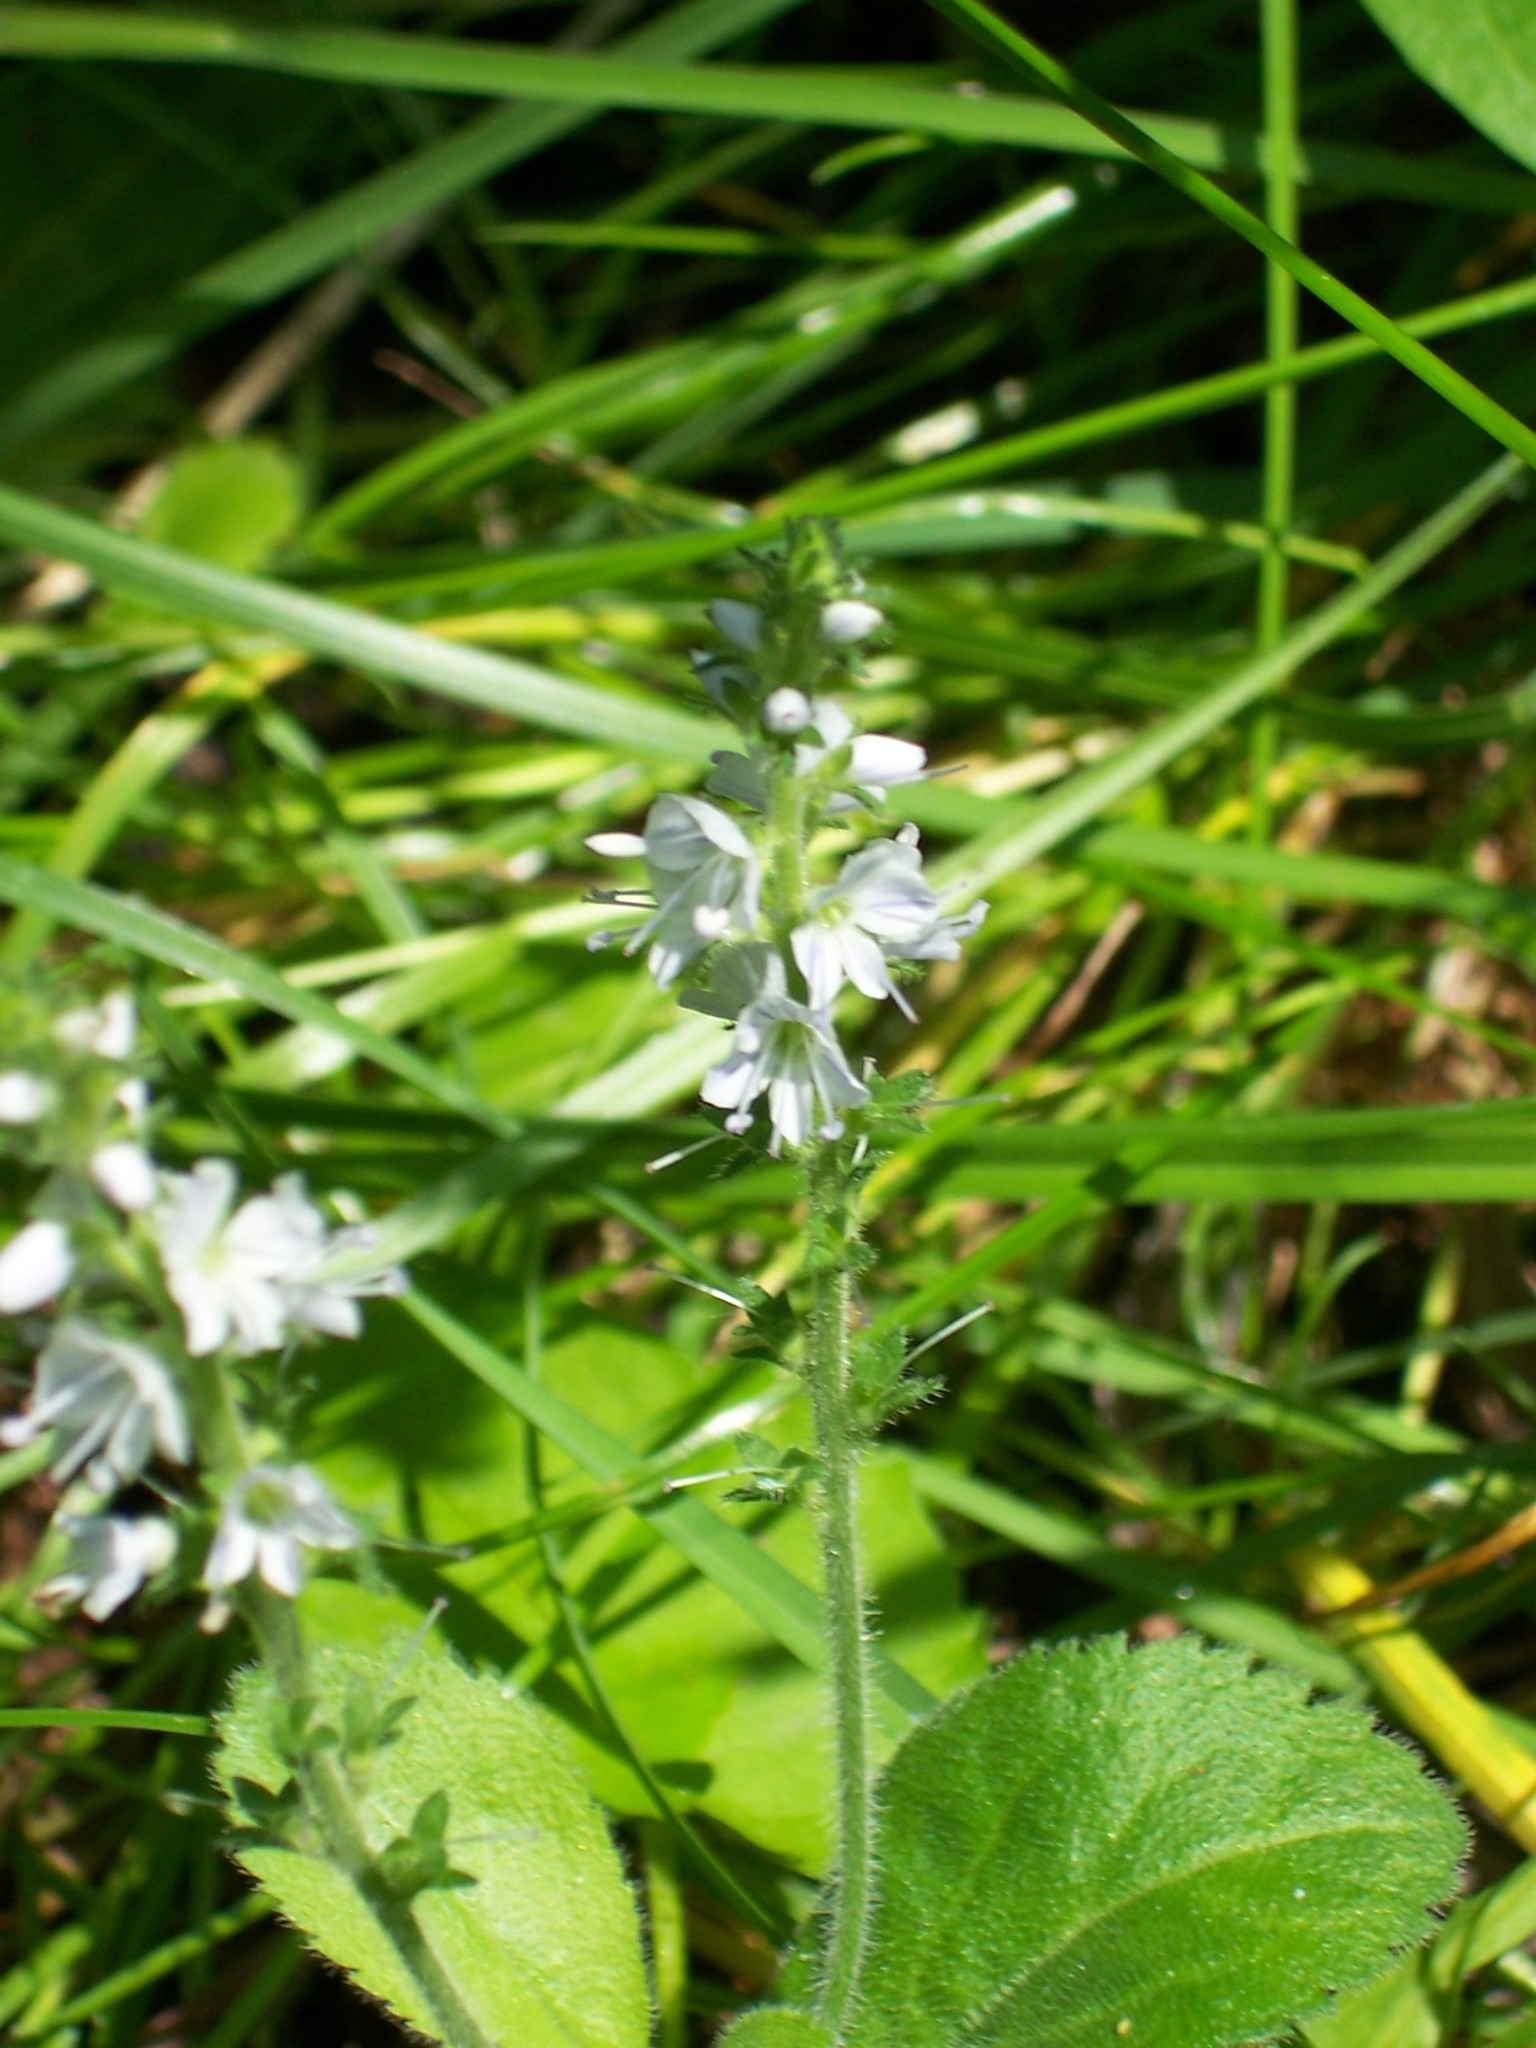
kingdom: Plantae
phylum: Tracheophyta
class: Magnoliopsida
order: Lamiales
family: Plantaginaceae
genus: Veronica
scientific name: Veronica officinalis
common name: Common speedwell
